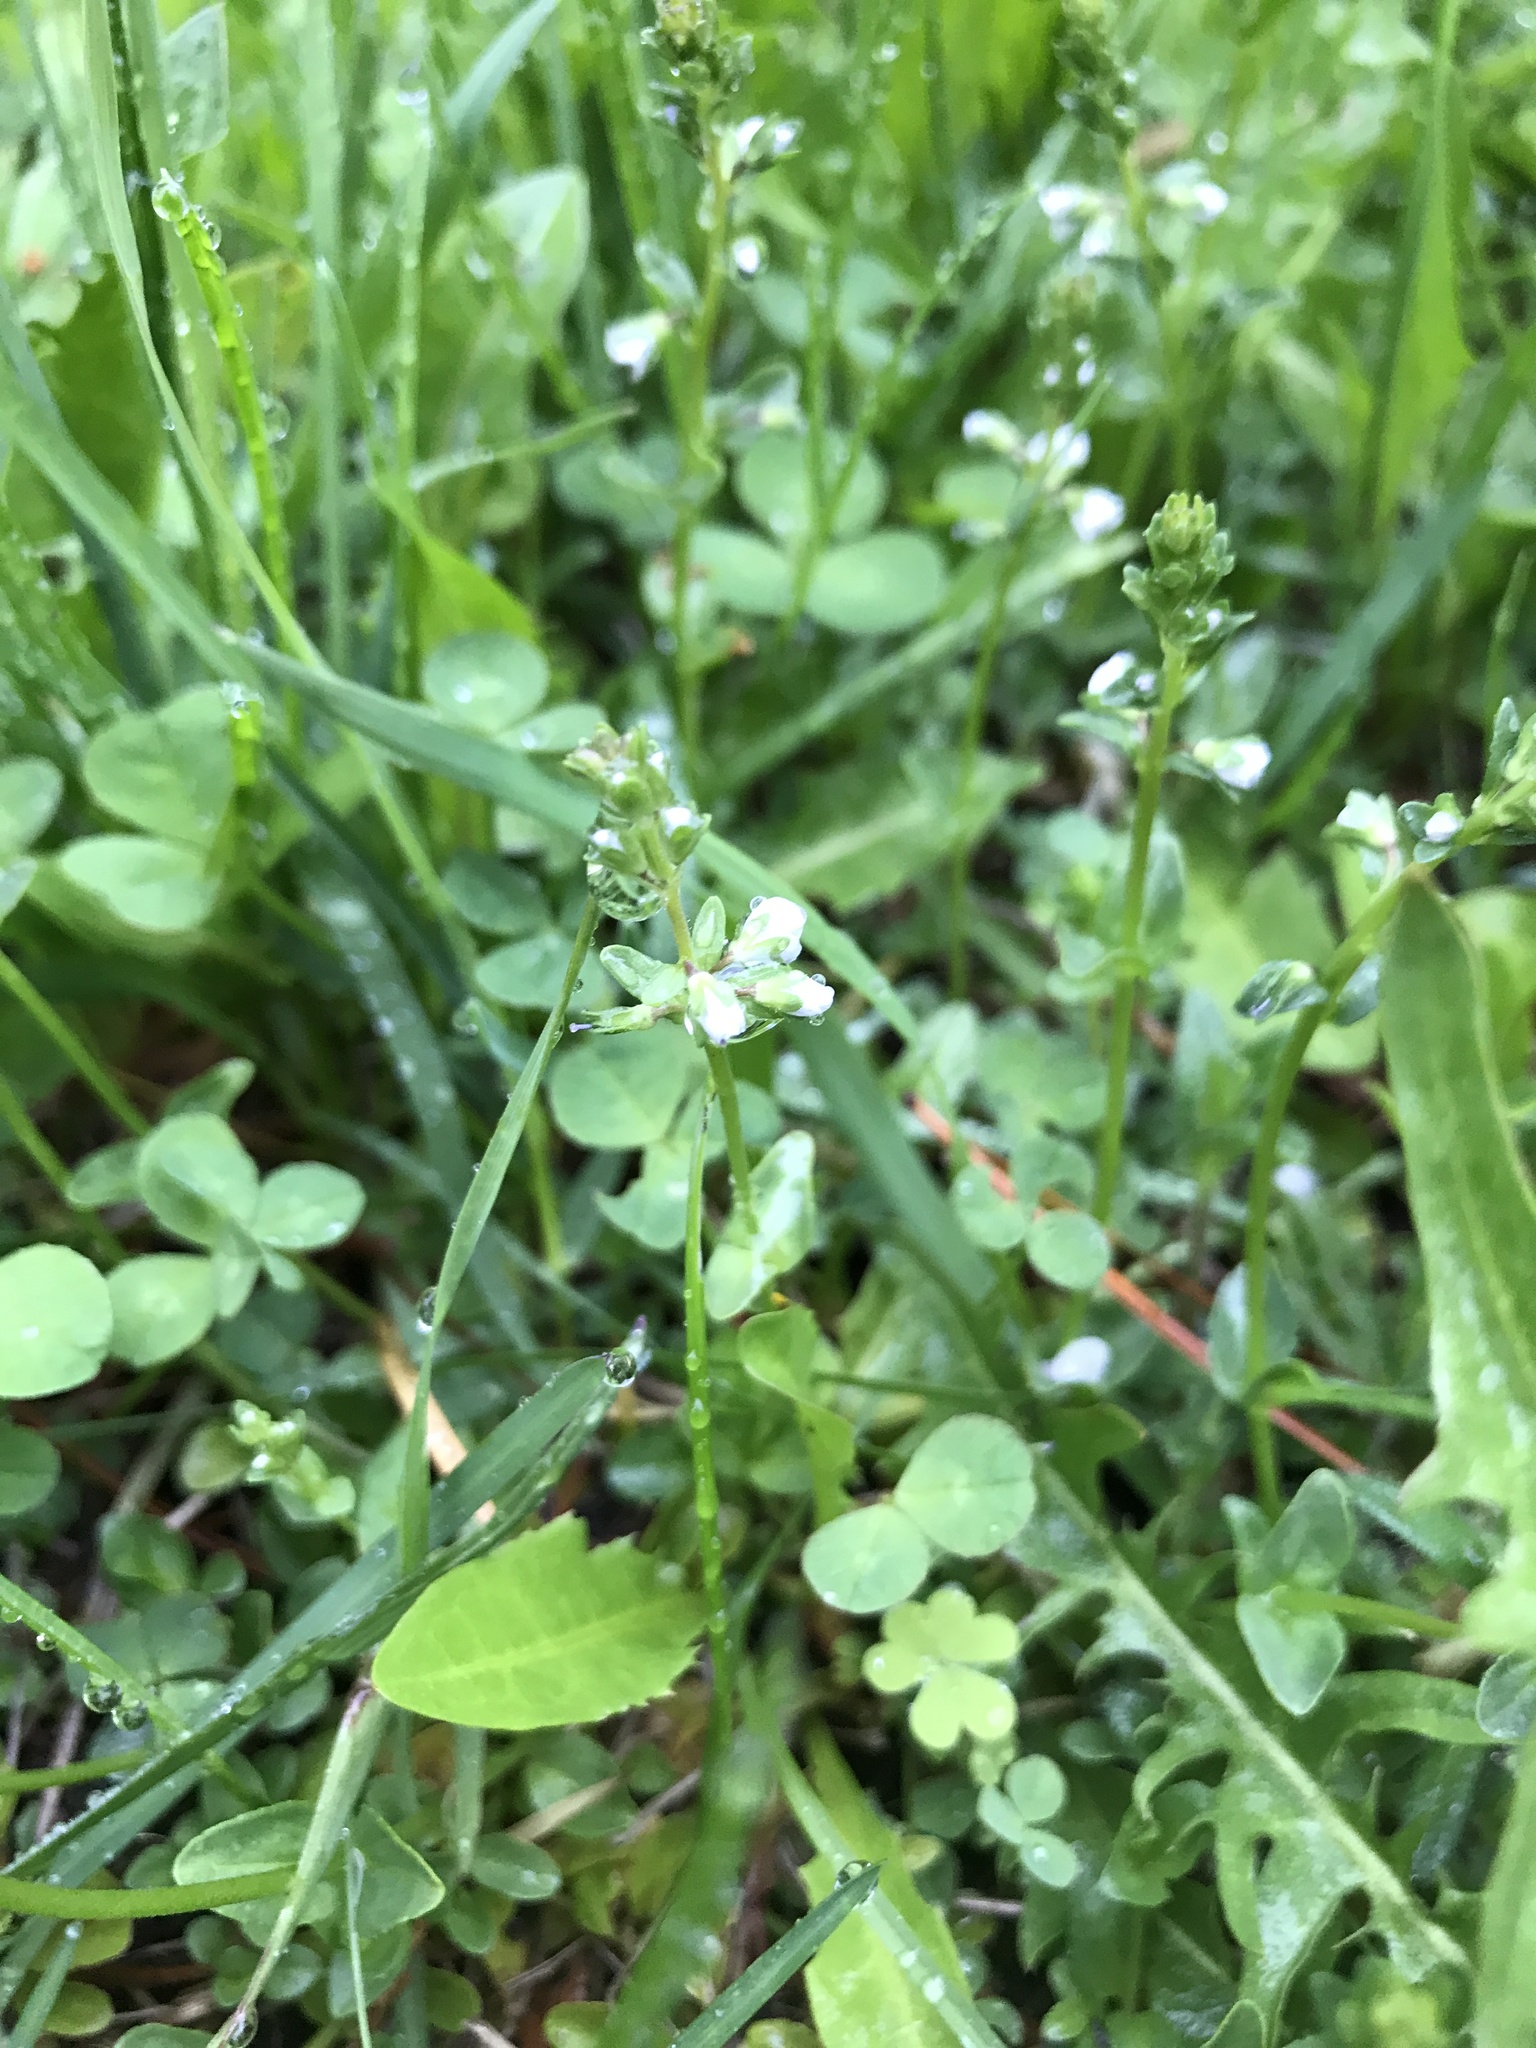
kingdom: Plantae
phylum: Tracheophyta
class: Magnoliopsida
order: Lamiales
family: Plantaginaceae
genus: Veronica
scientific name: Veronica serpyllifolia
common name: Thyme-leaved speedwell
